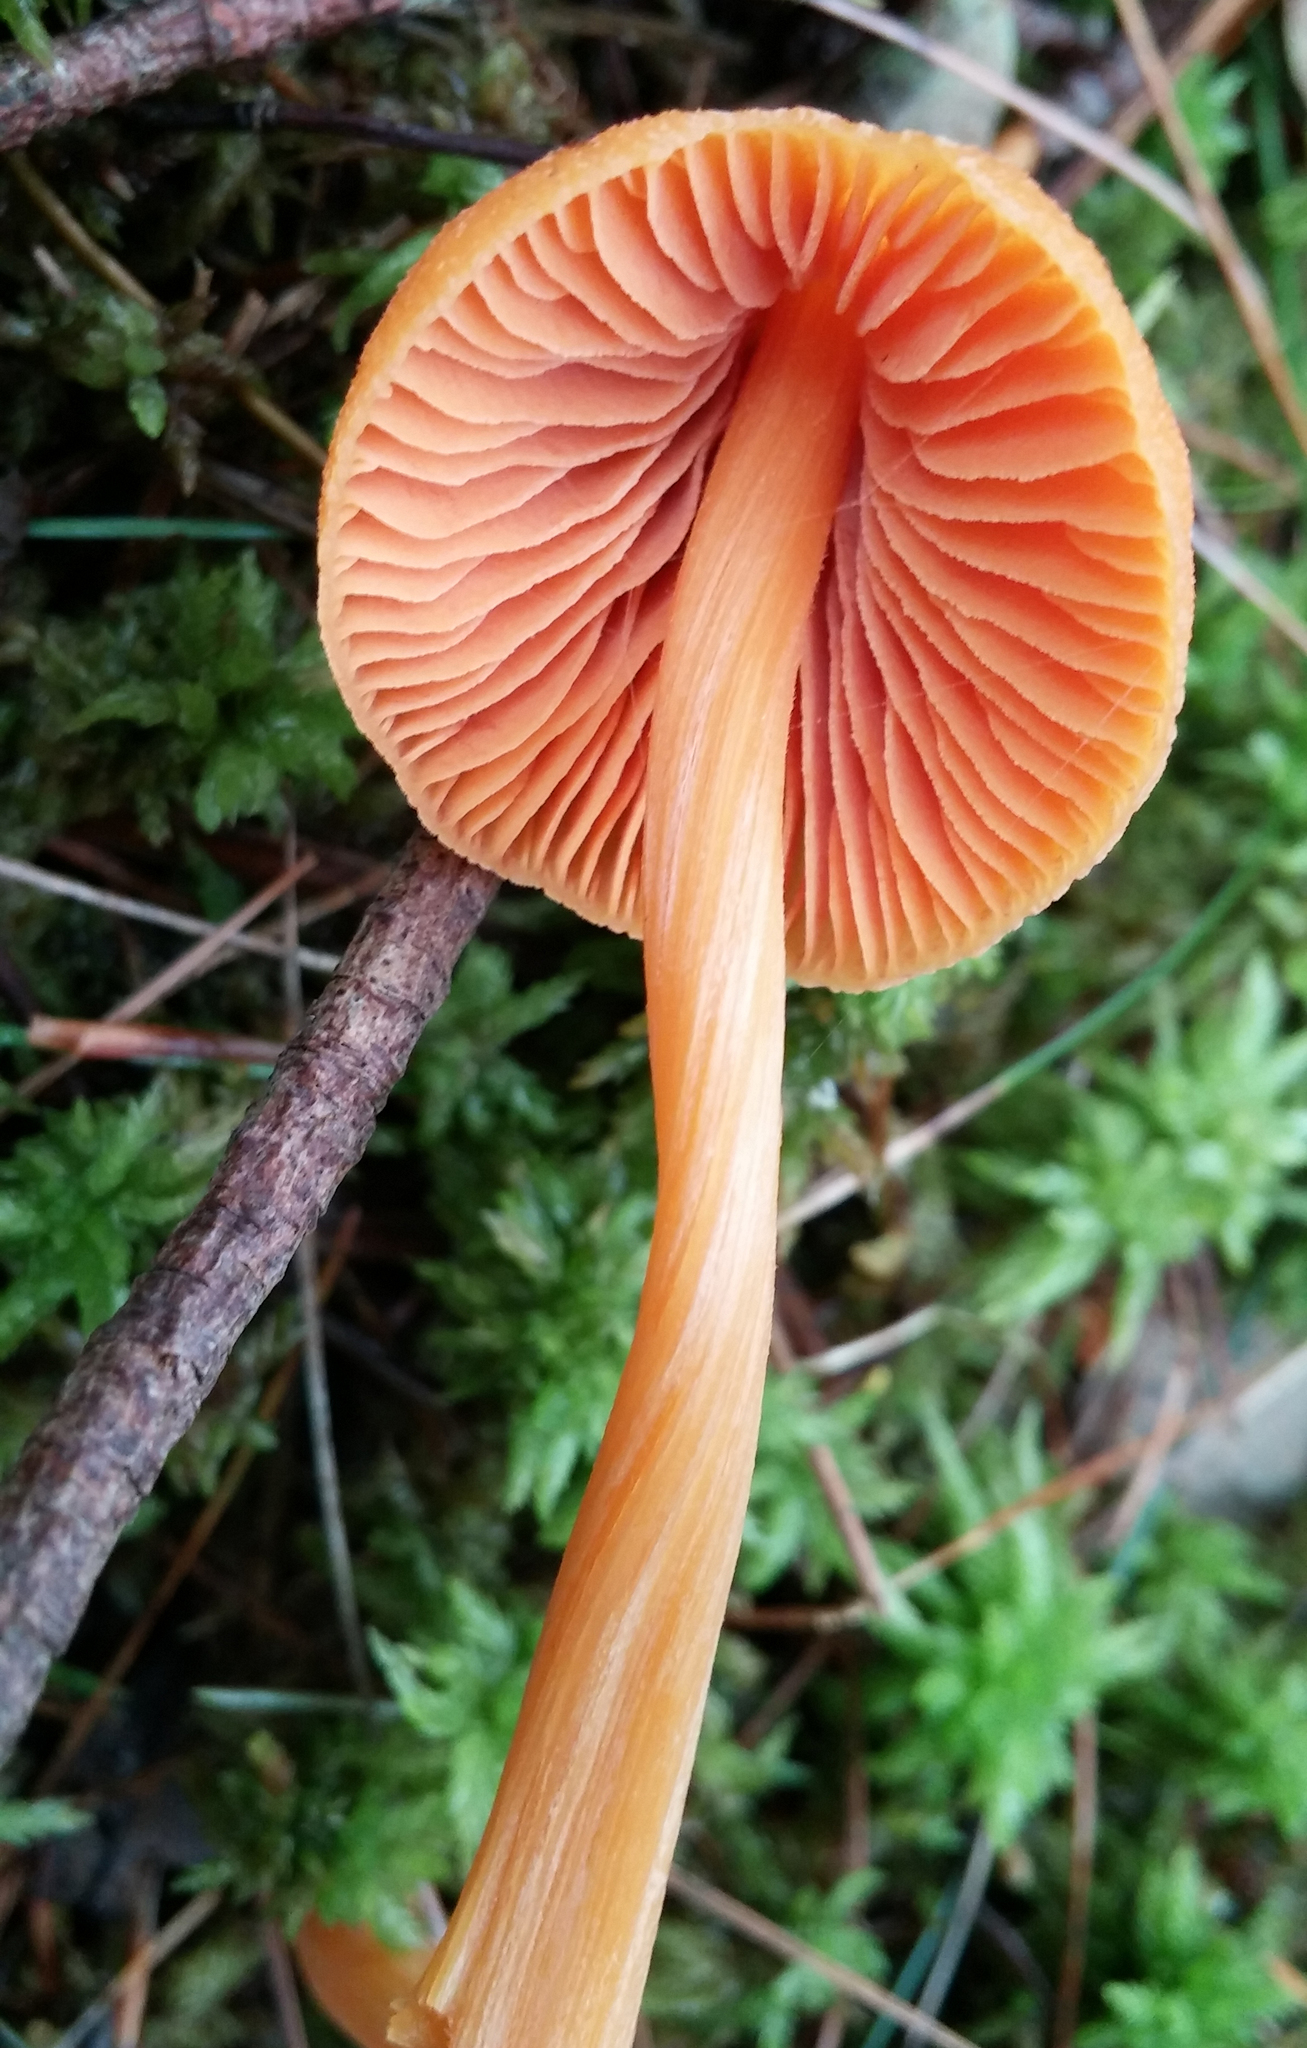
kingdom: Fungi
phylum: Basidiomycota
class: Agaricomycetes
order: Agaricales
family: Entolomataceae
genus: Entoloma
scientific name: Entoloma quadratum
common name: Salmon pinkgill
